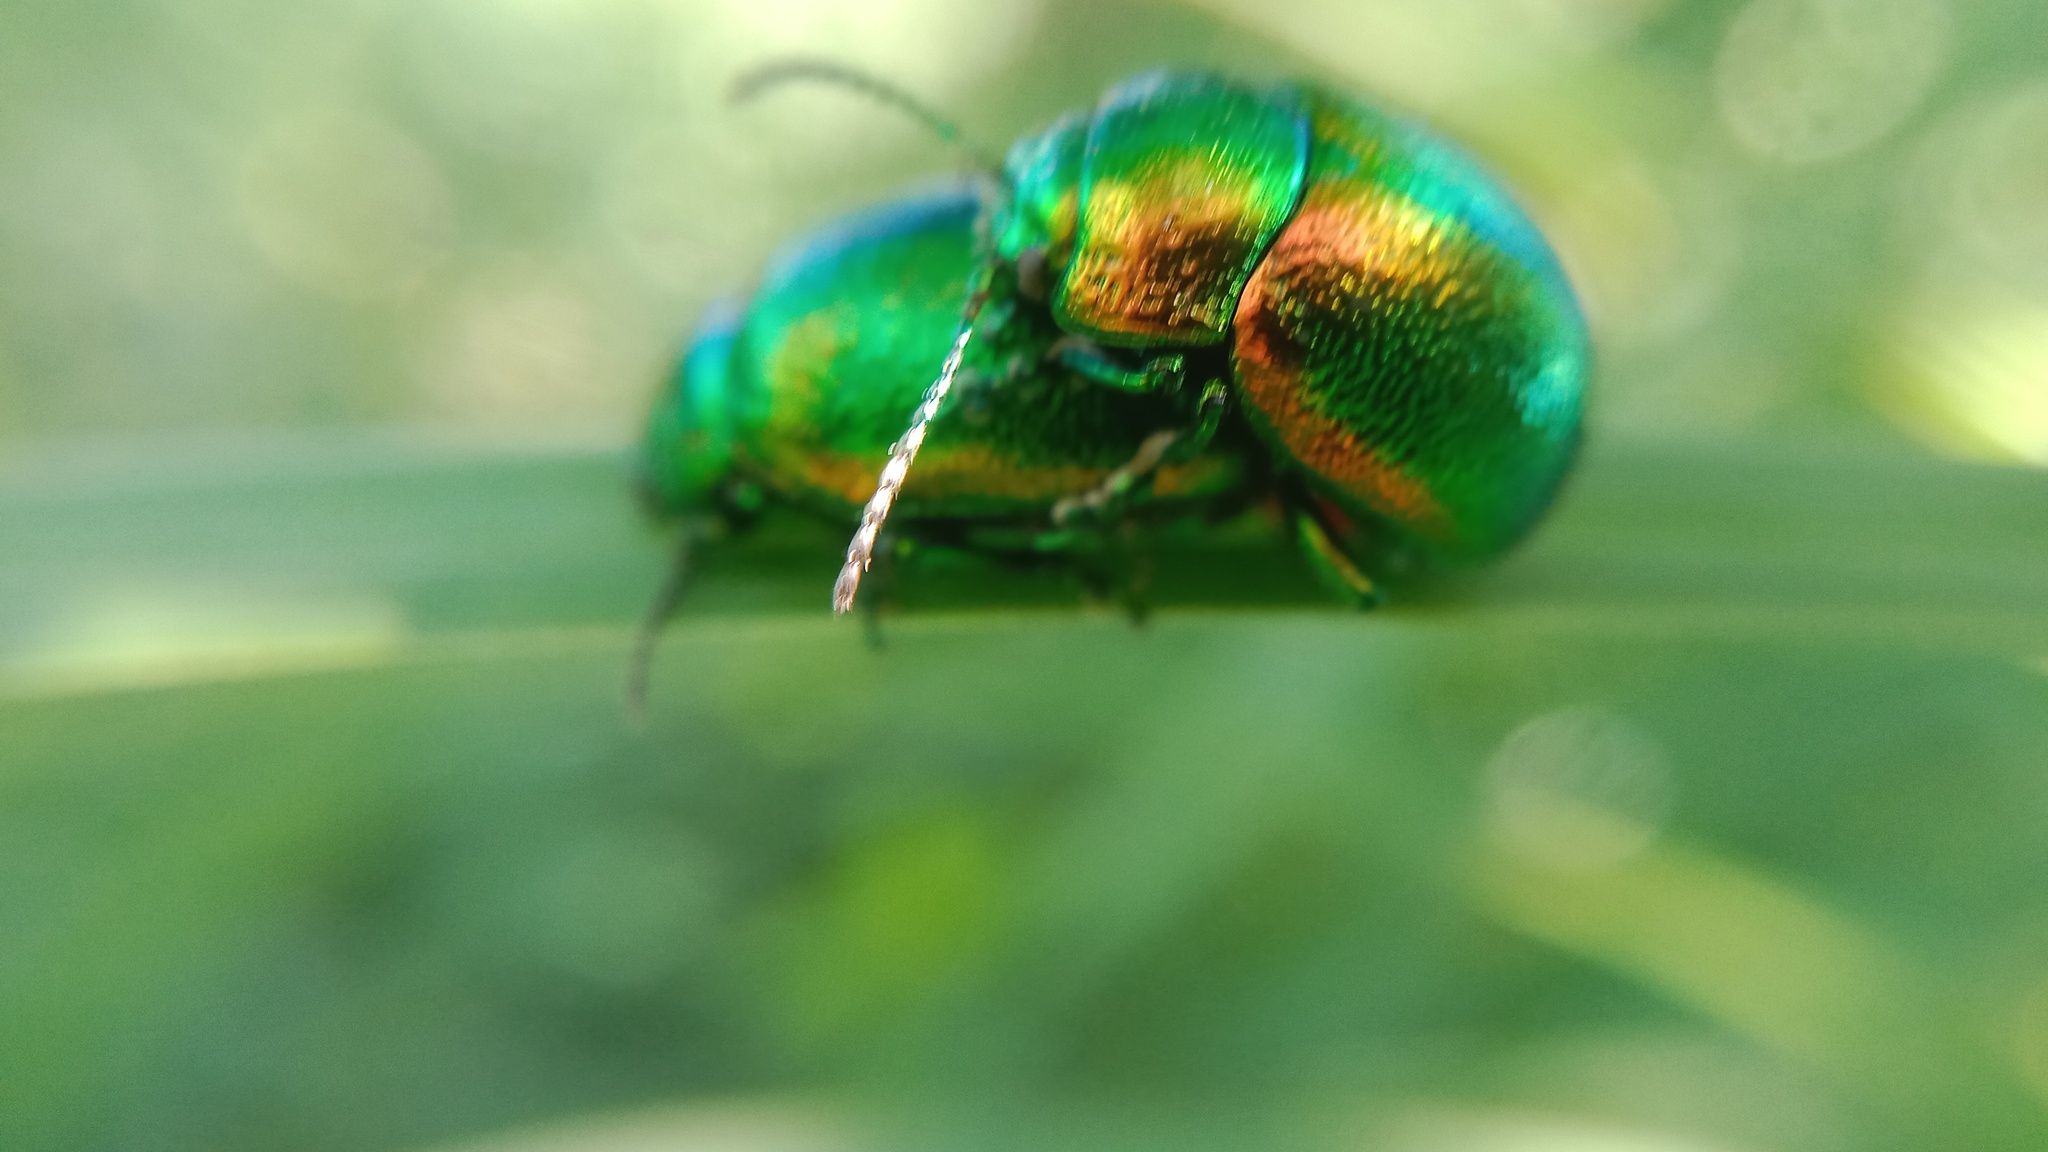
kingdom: Animalia
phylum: Arthropoda
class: Insecta
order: Coleoptera
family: Chrysomelidae
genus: Chrysolina
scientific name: Chrysolina graminis
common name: Tansey beetle
